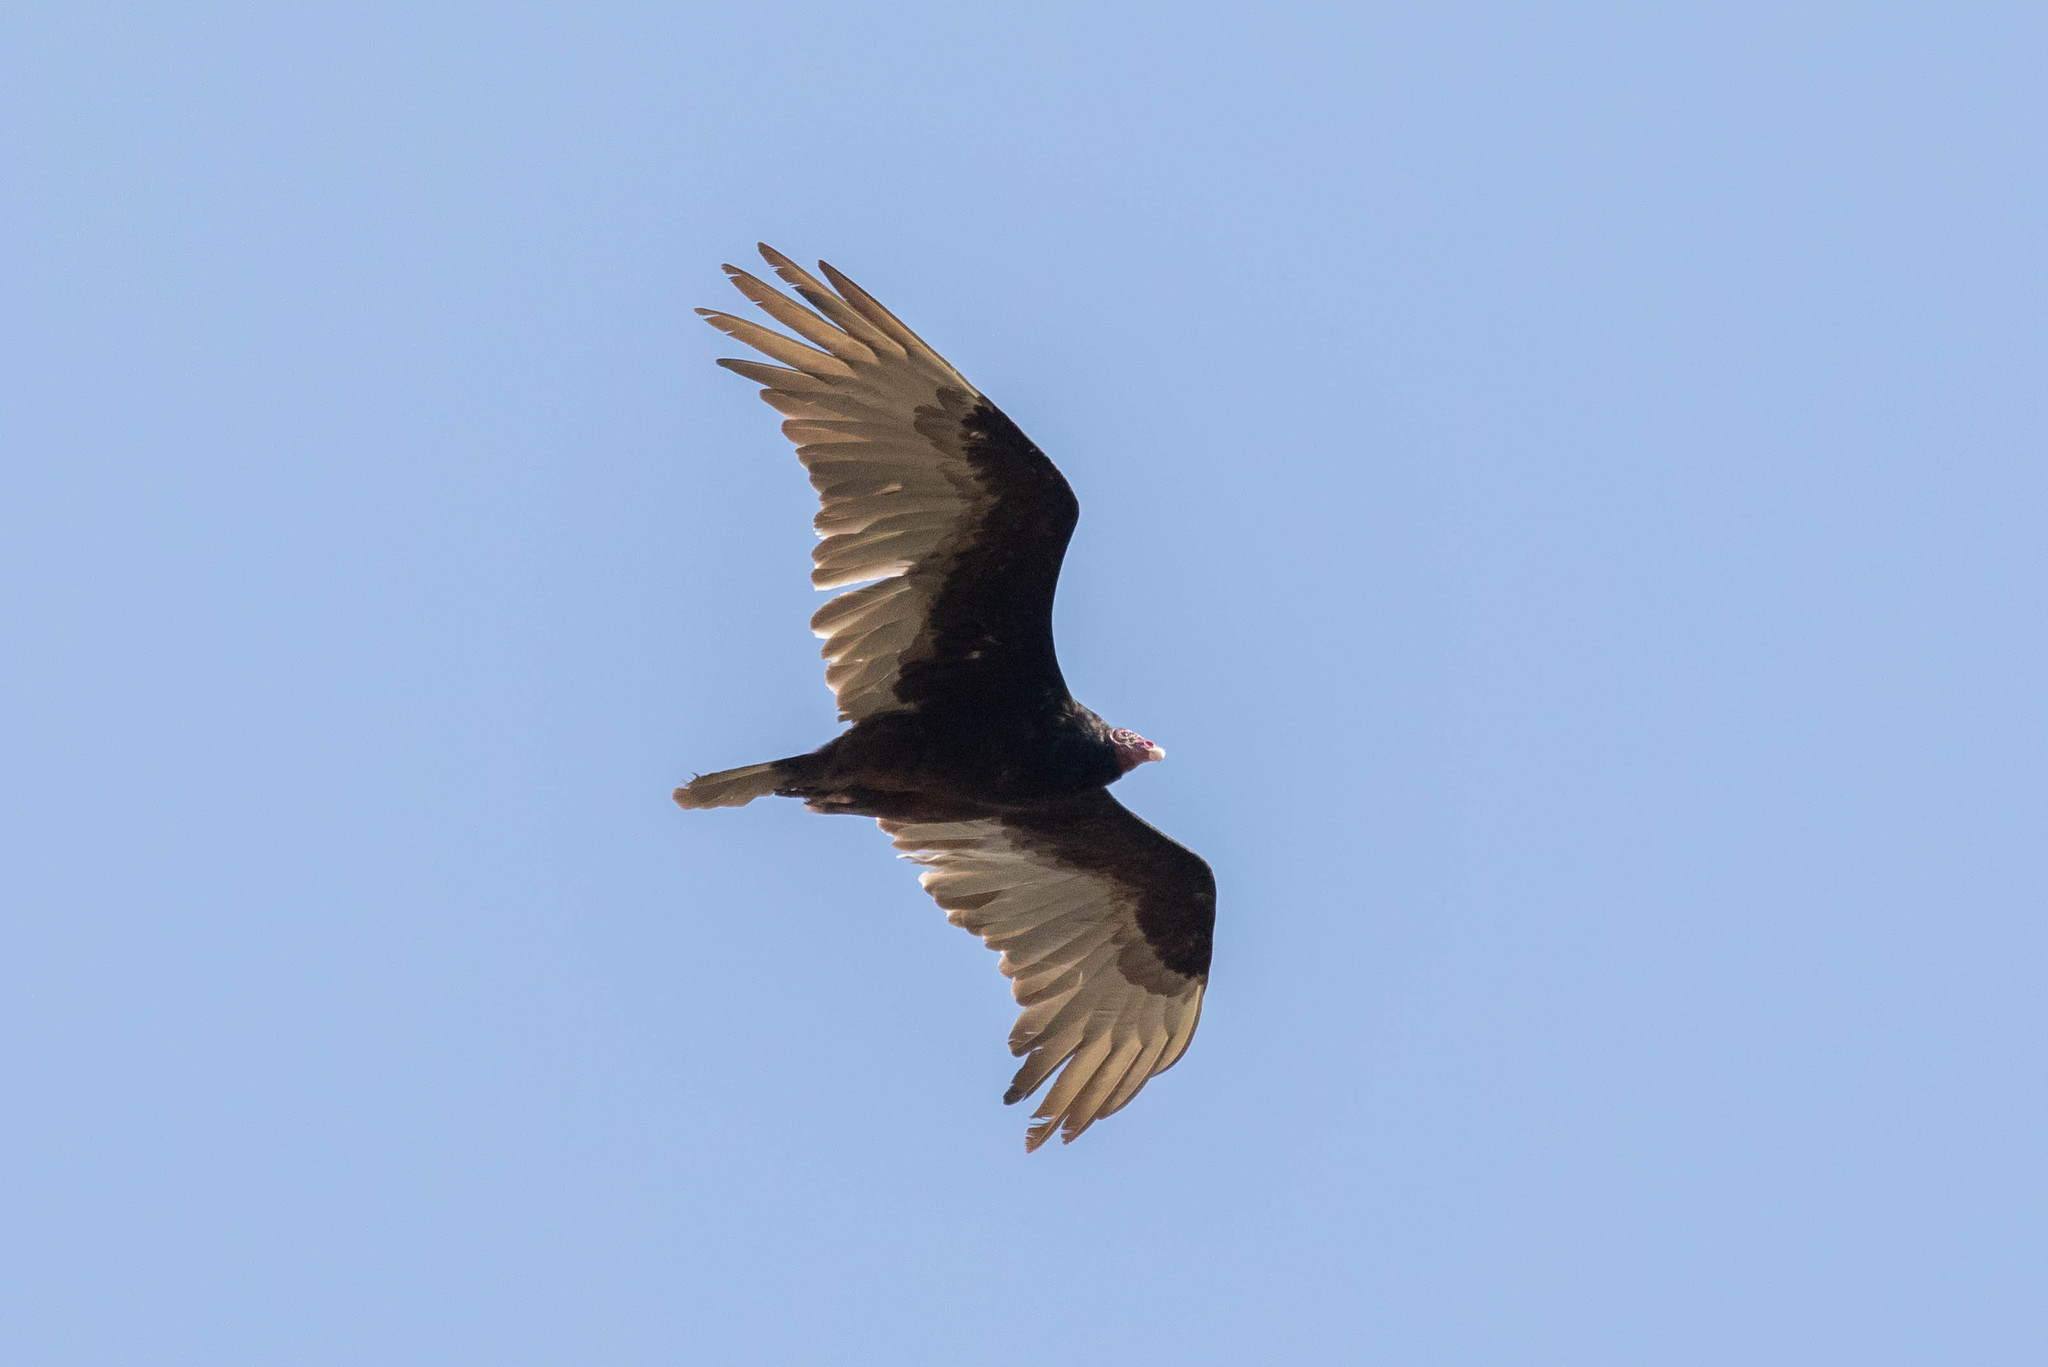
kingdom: Animalia
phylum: Chordata
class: Aves
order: Accipitriformes
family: Cathartidae
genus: Cathartes
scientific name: Cathartes aura
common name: Turkey vulture
